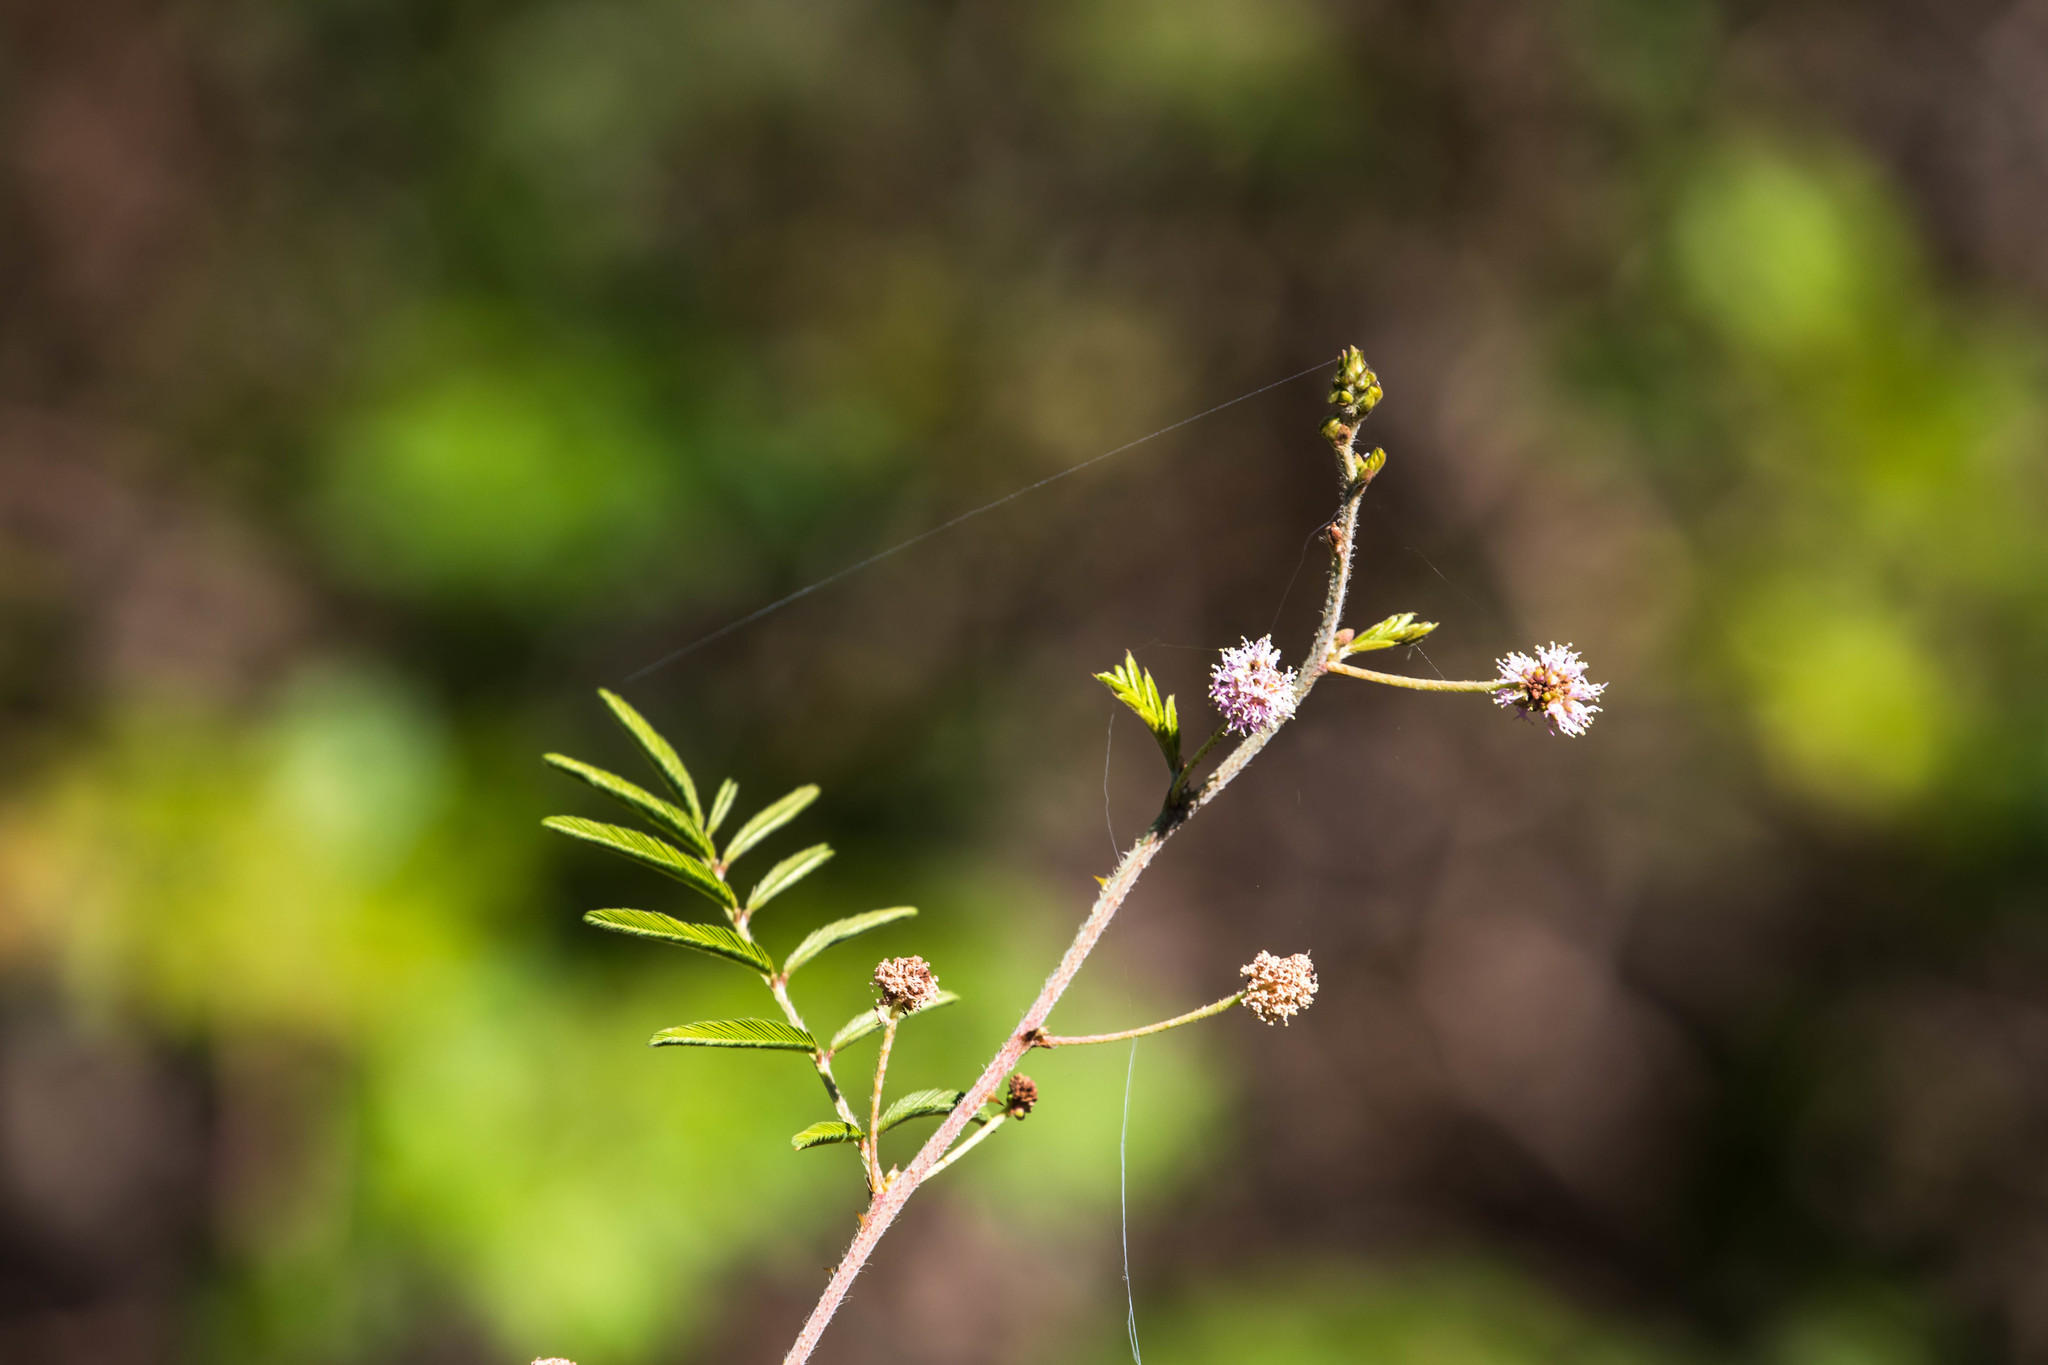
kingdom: Plantae
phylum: Tracheophyta
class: Magnoliopsida
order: Fabales
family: Fabaceae
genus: Mimosa
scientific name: Mimosa pigra
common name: Black mimosa
